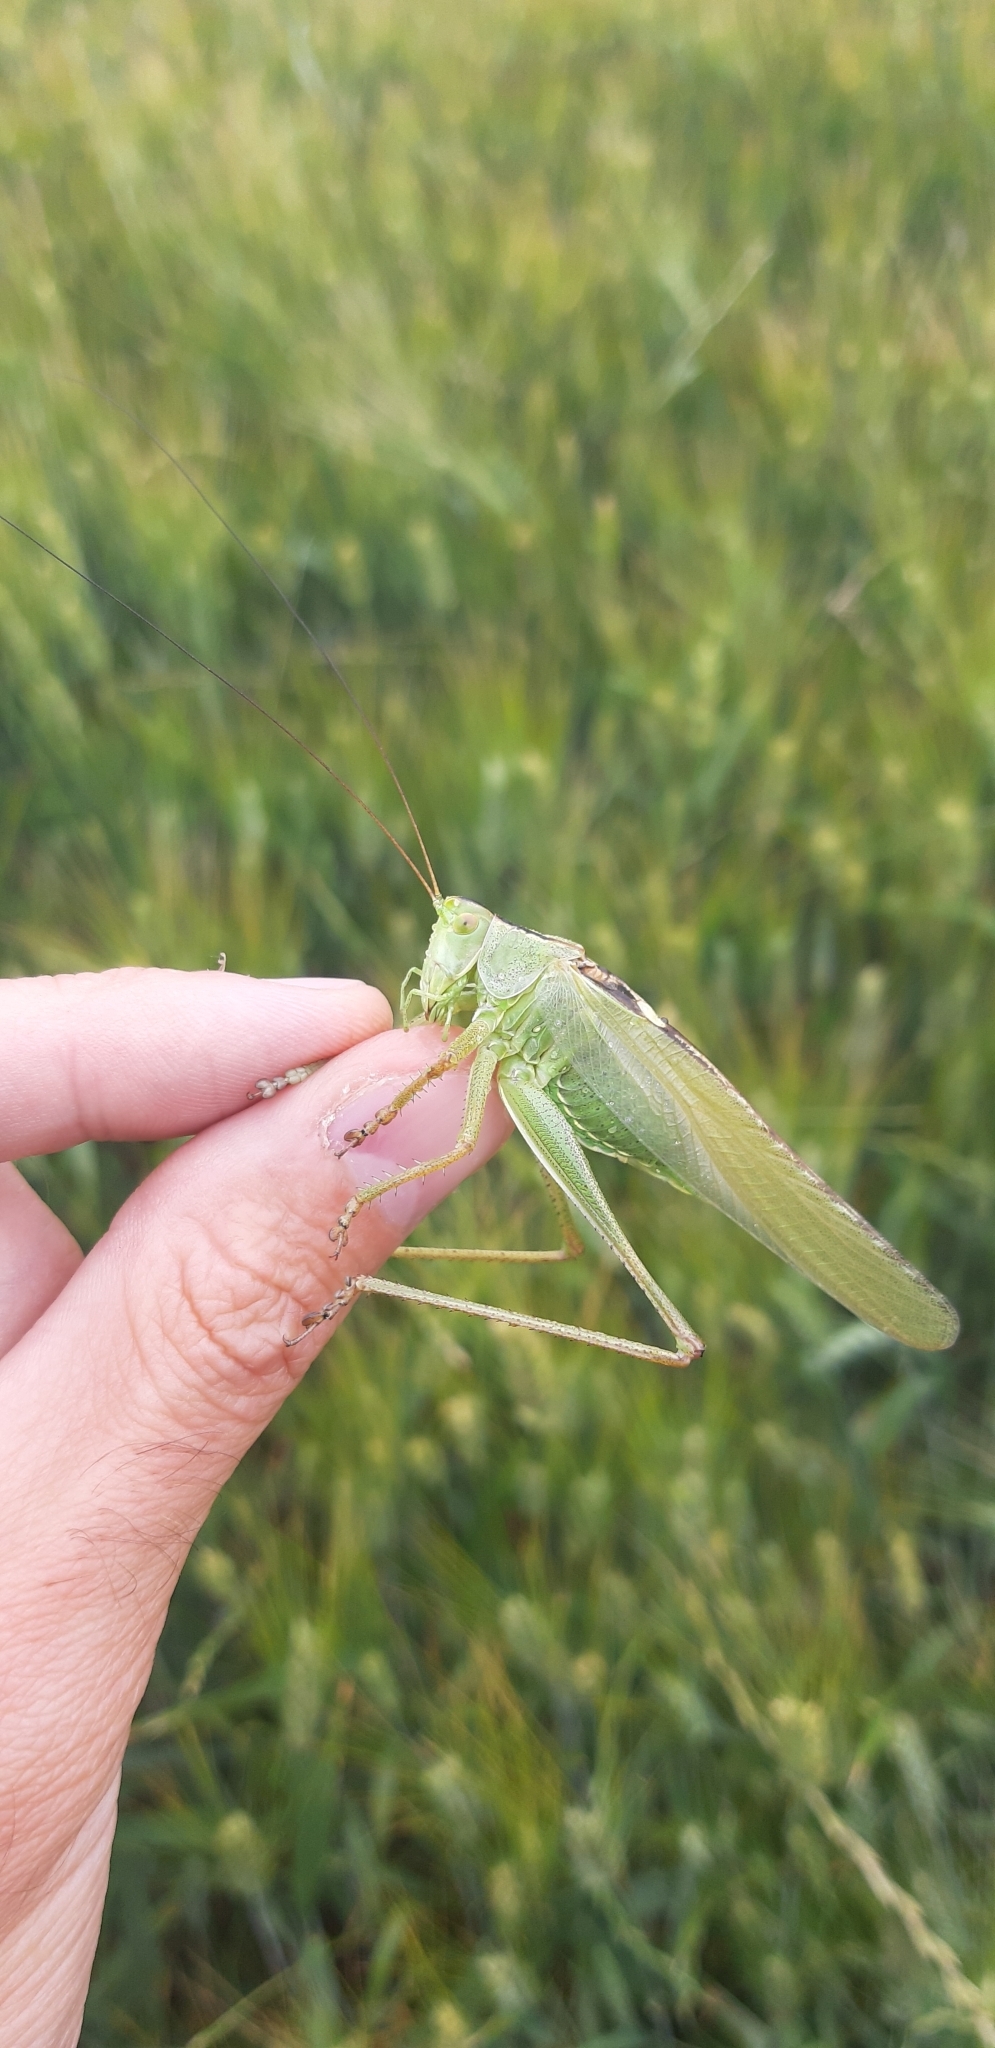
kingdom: Animalia
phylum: Arthropoda
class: Insecta
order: Orthoptera
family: Tettigoniidae
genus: Tettigonia
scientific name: Tettigonia viridissima
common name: Great green bush-cricket
